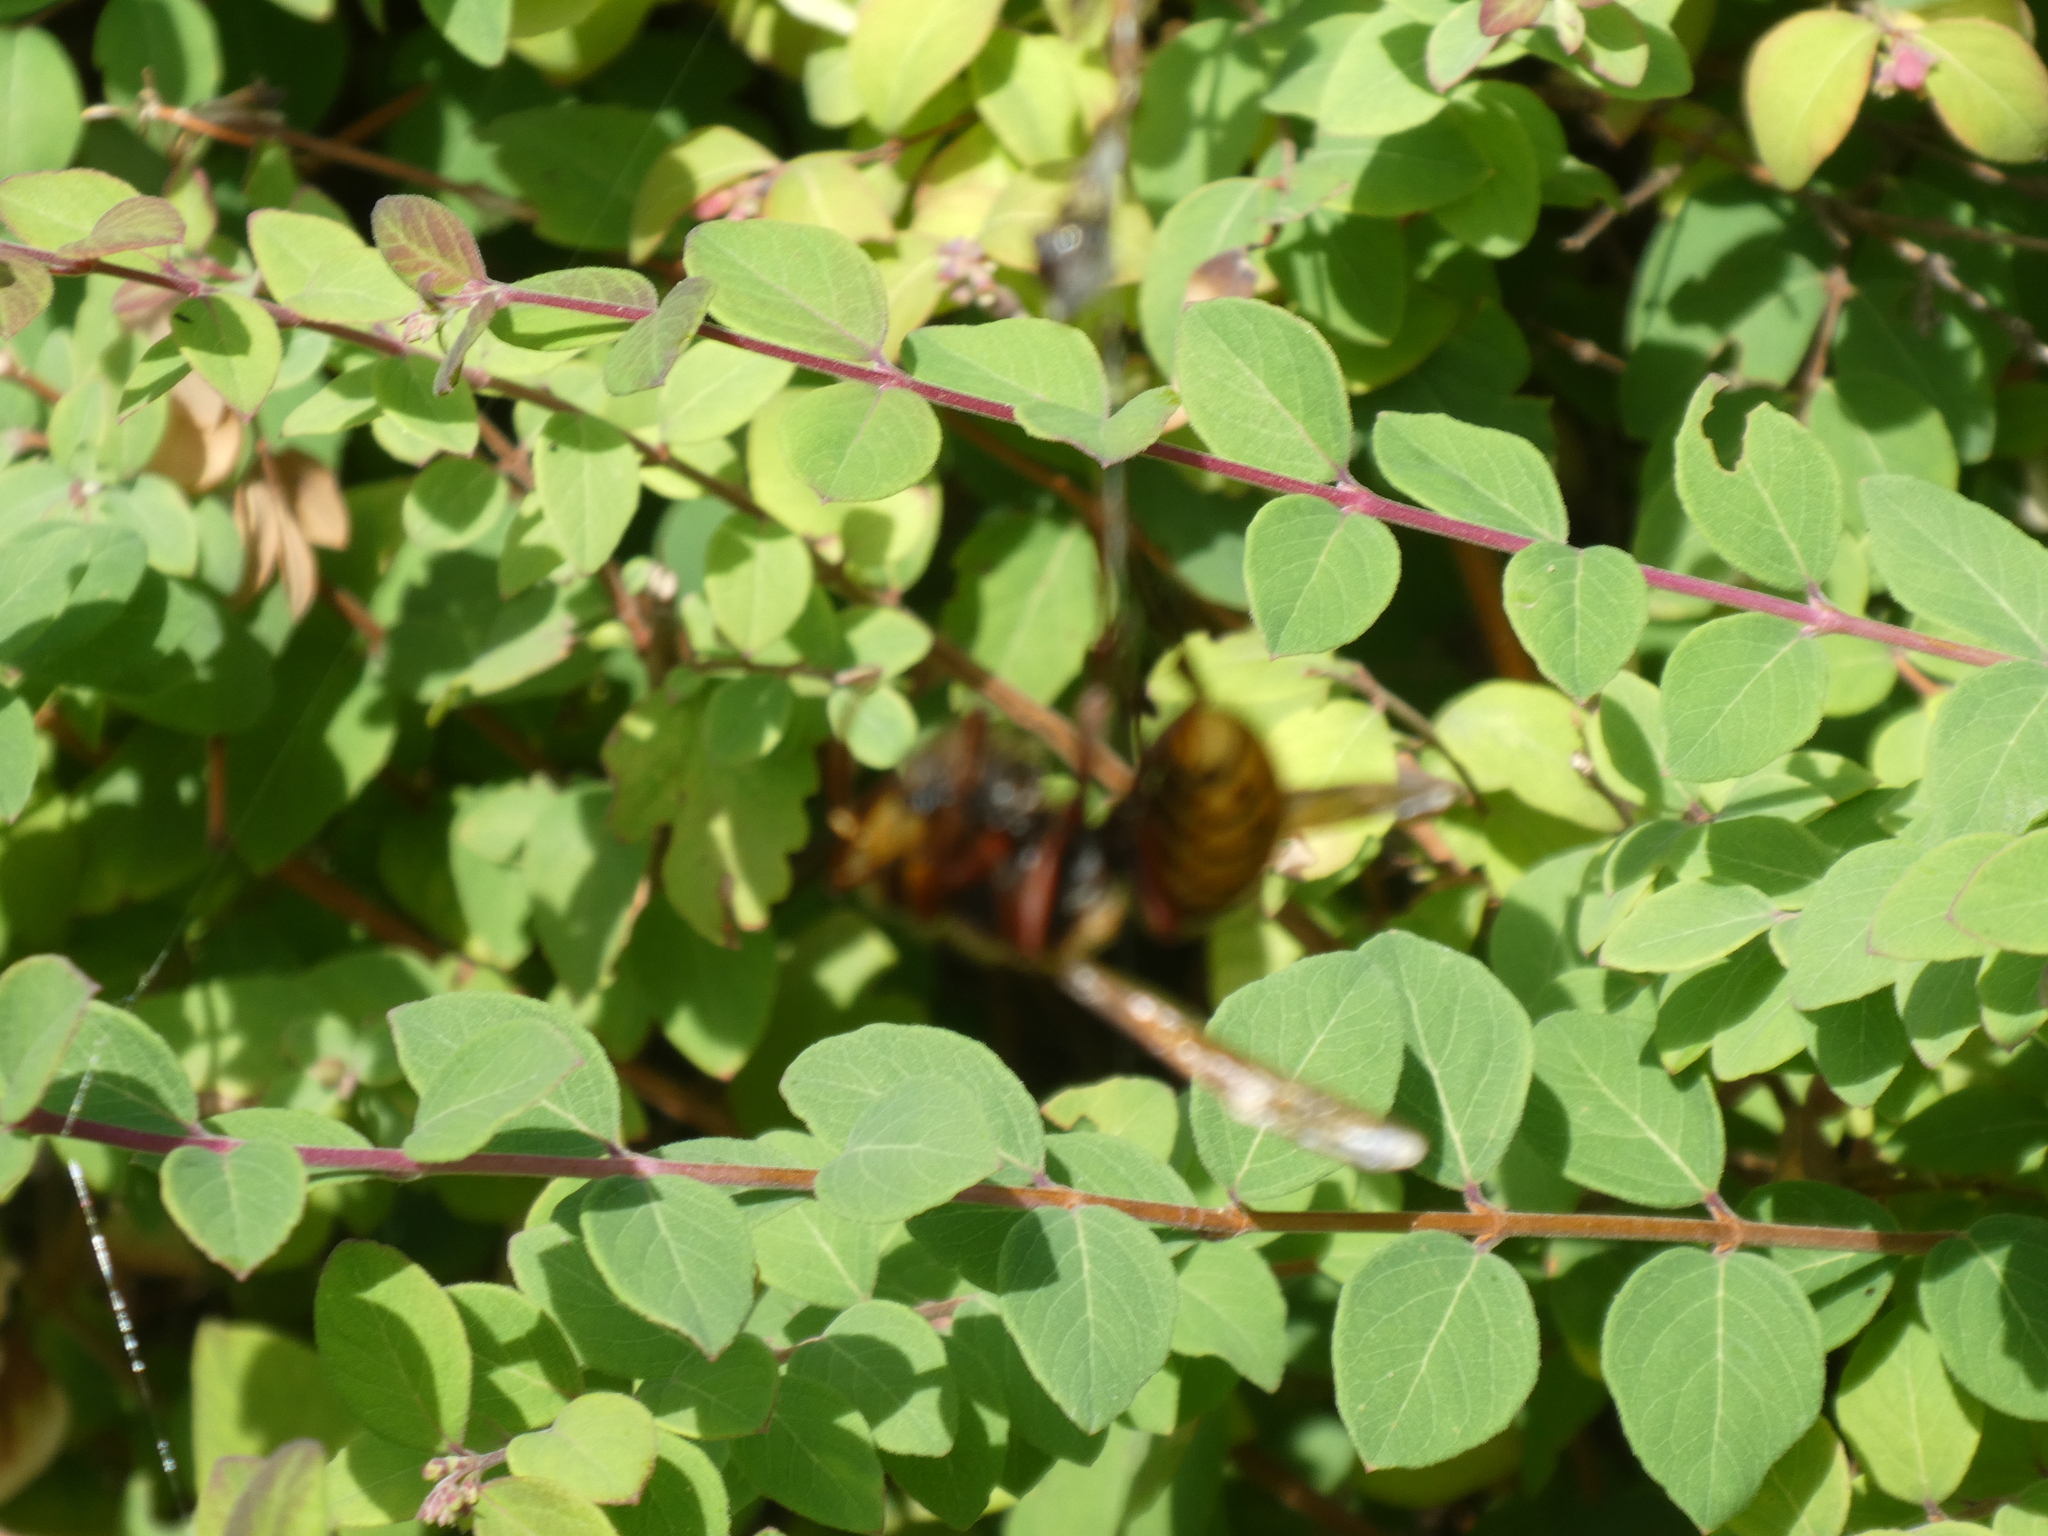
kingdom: Animalia
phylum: Arthropoda
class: Insecta
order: Hymenoptera
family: Vespidae
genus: Vespa
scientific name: Vespa crabro
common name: Hornet
